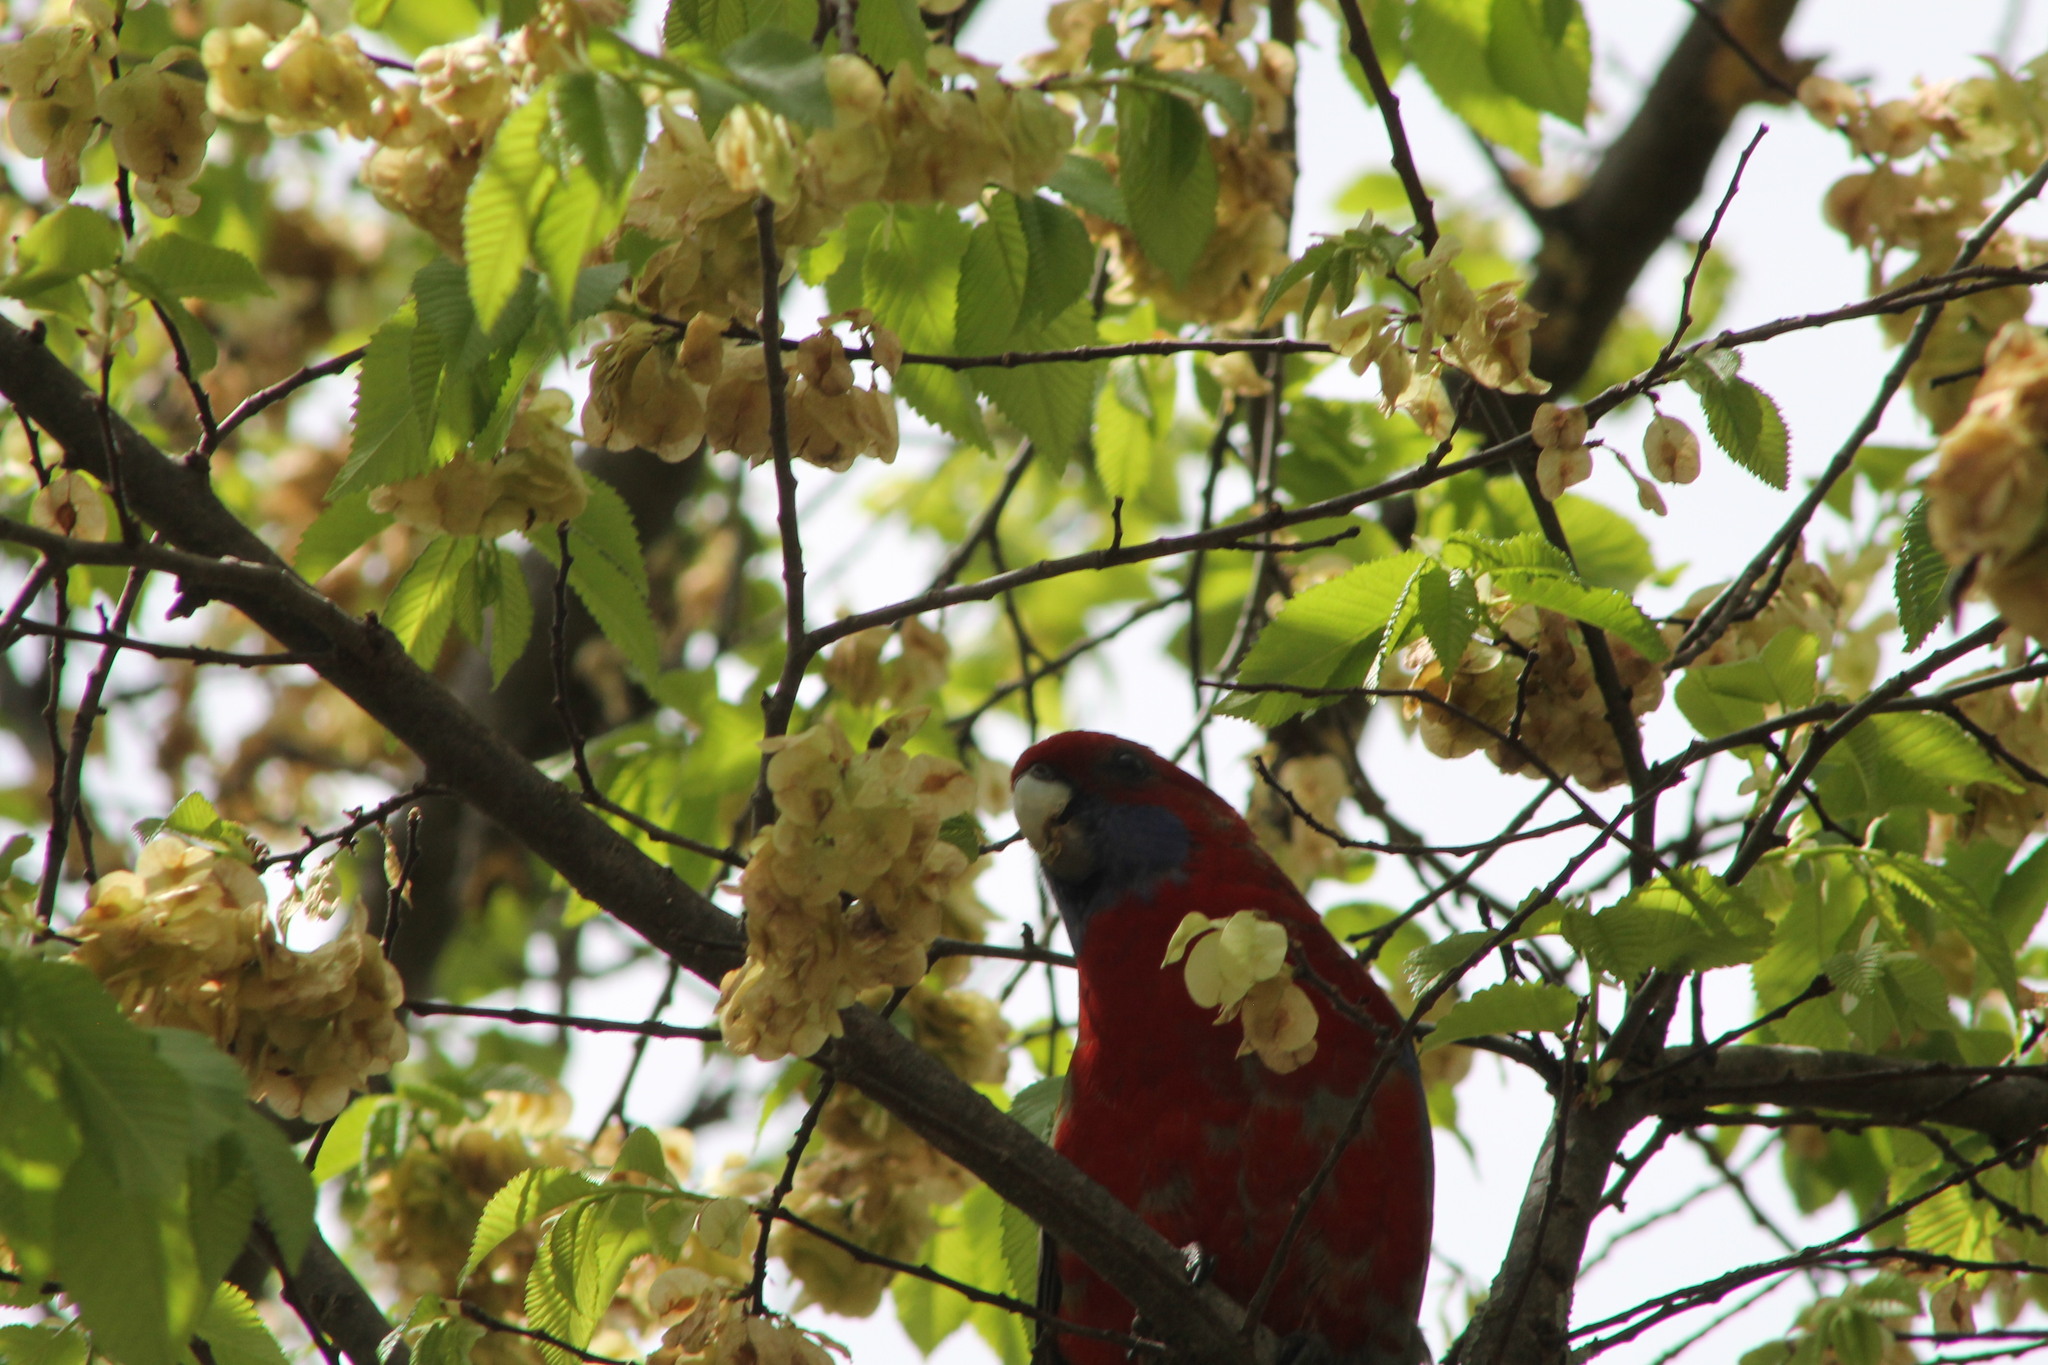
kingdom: Animalia
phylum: Chordata
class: Aves
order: Psittaciformes
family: Psittacidae
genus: Platycercus
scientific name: Platycercus elegans
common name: Crimson rosella
